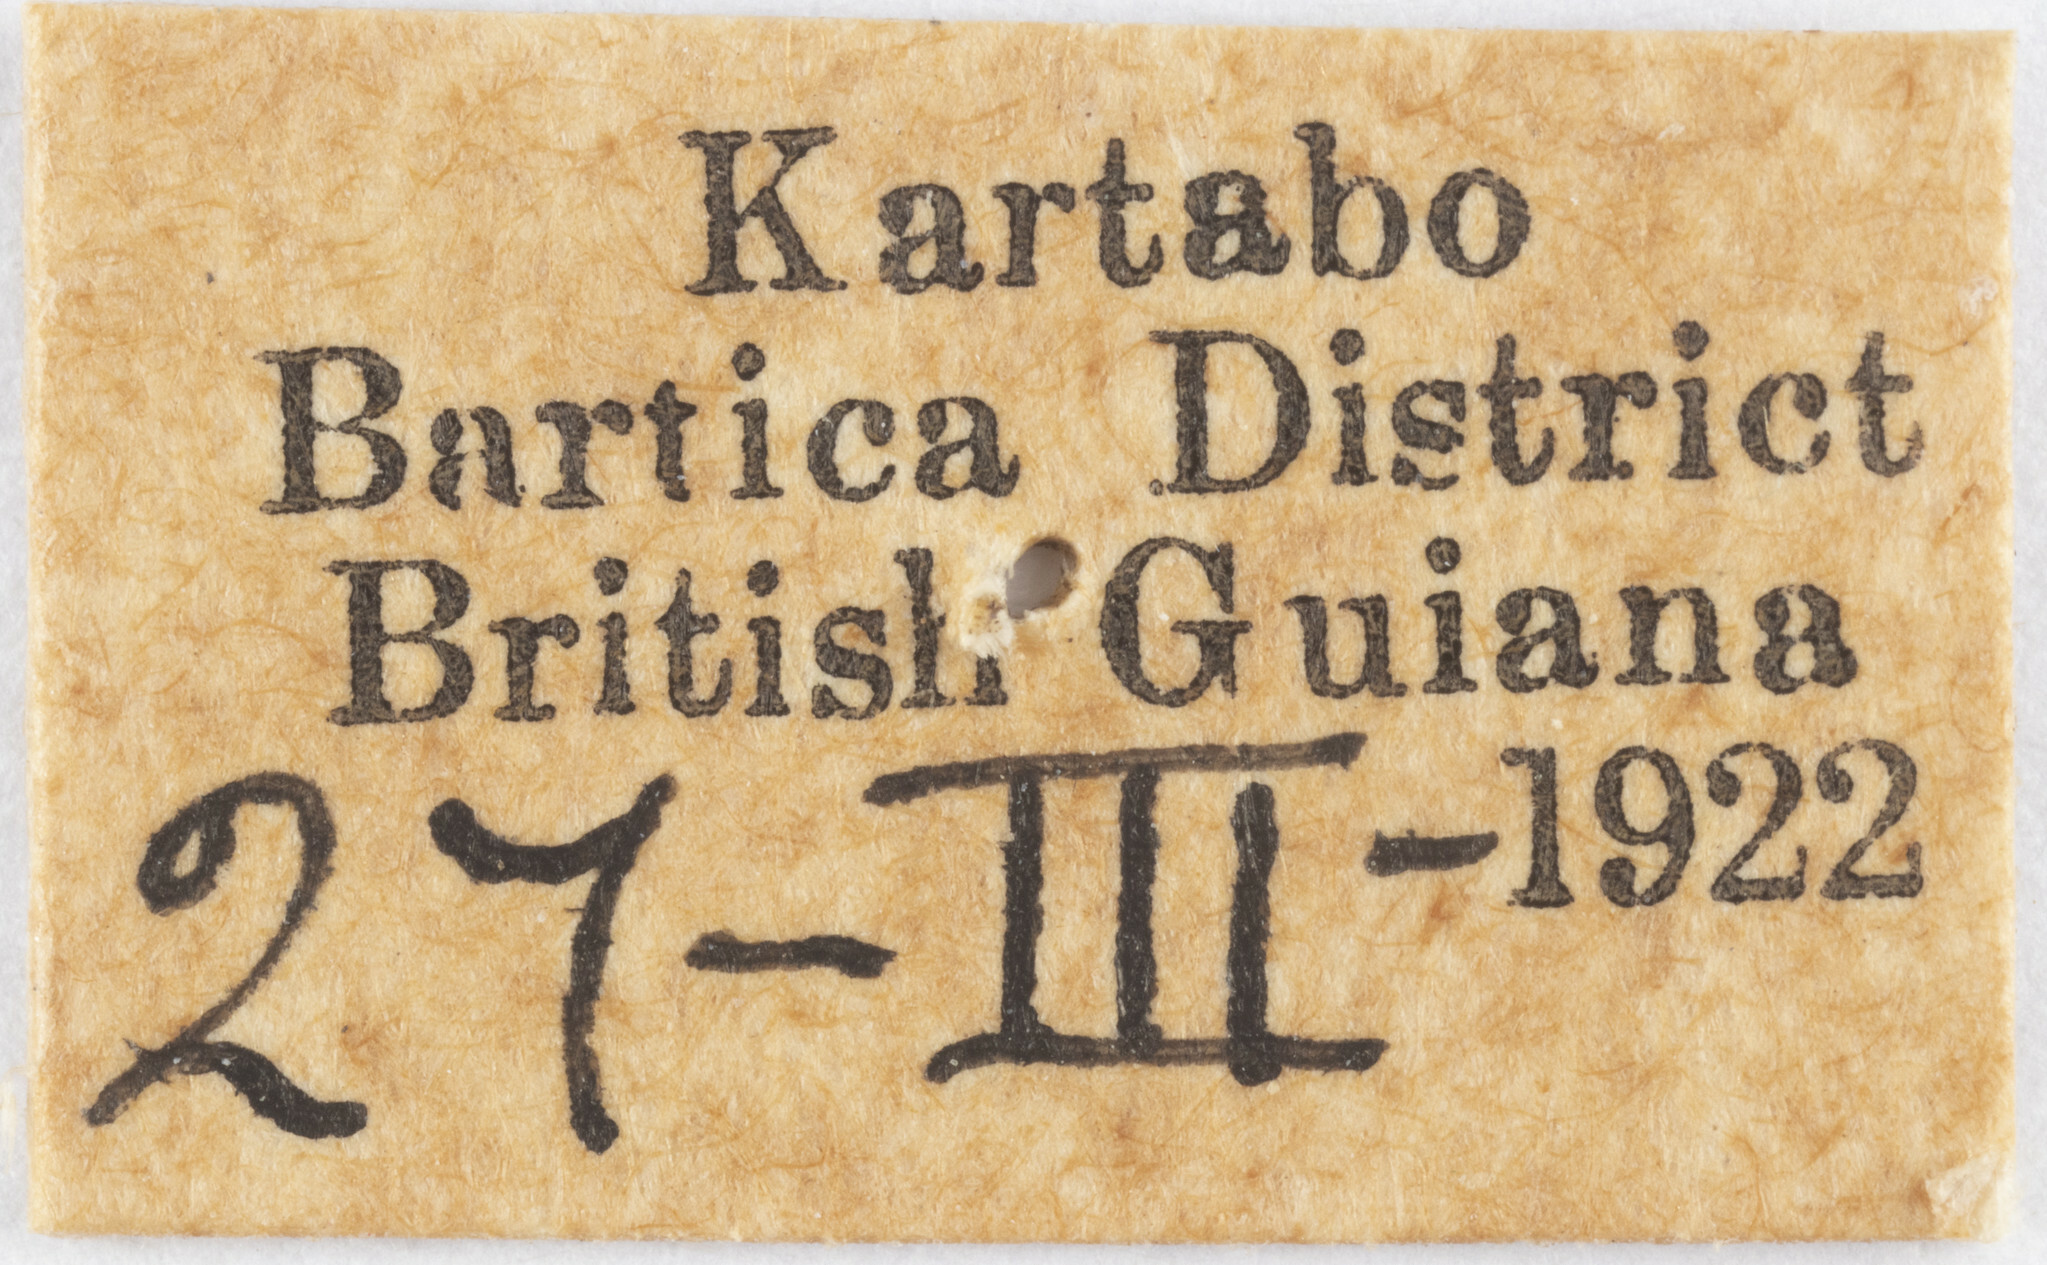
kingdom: Animalia
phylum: Arthropoda
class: Insecta
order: Hemiptera
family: Cixiidae
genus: Mnemosyne
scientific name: Mnemosyne
